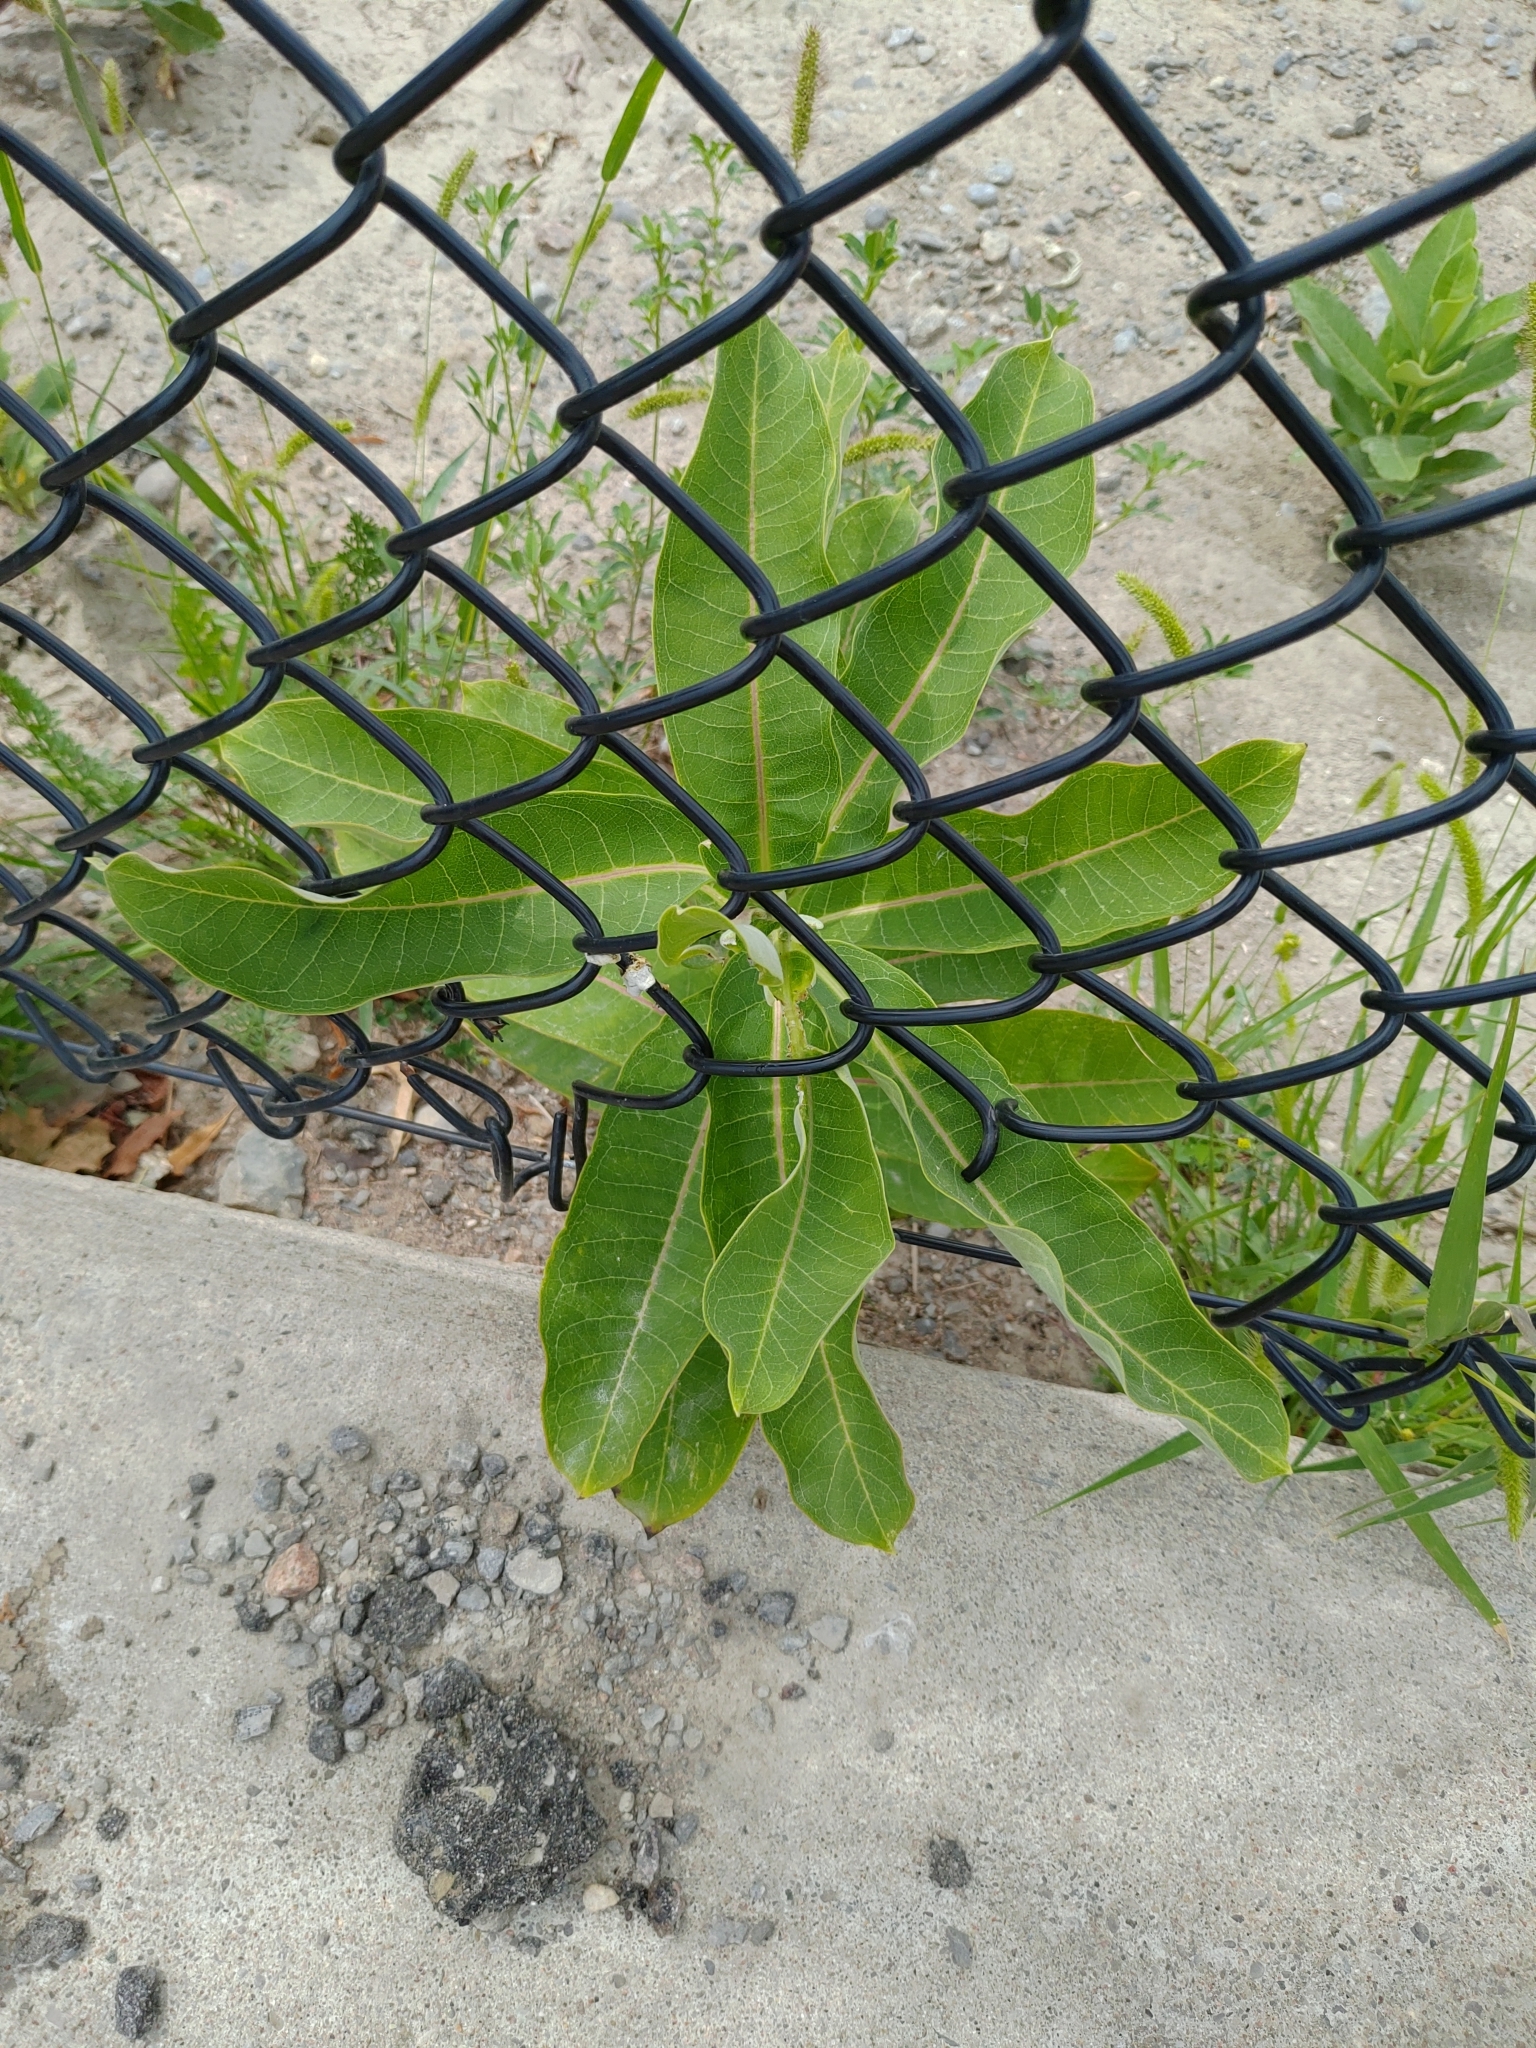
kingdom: Plantae
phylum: Tracheophyta
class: Magnoliopsida
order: Gentianales
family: Apocynaceae
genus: Asclepias
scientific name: Asclepias syriaca
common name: Common milkweed
